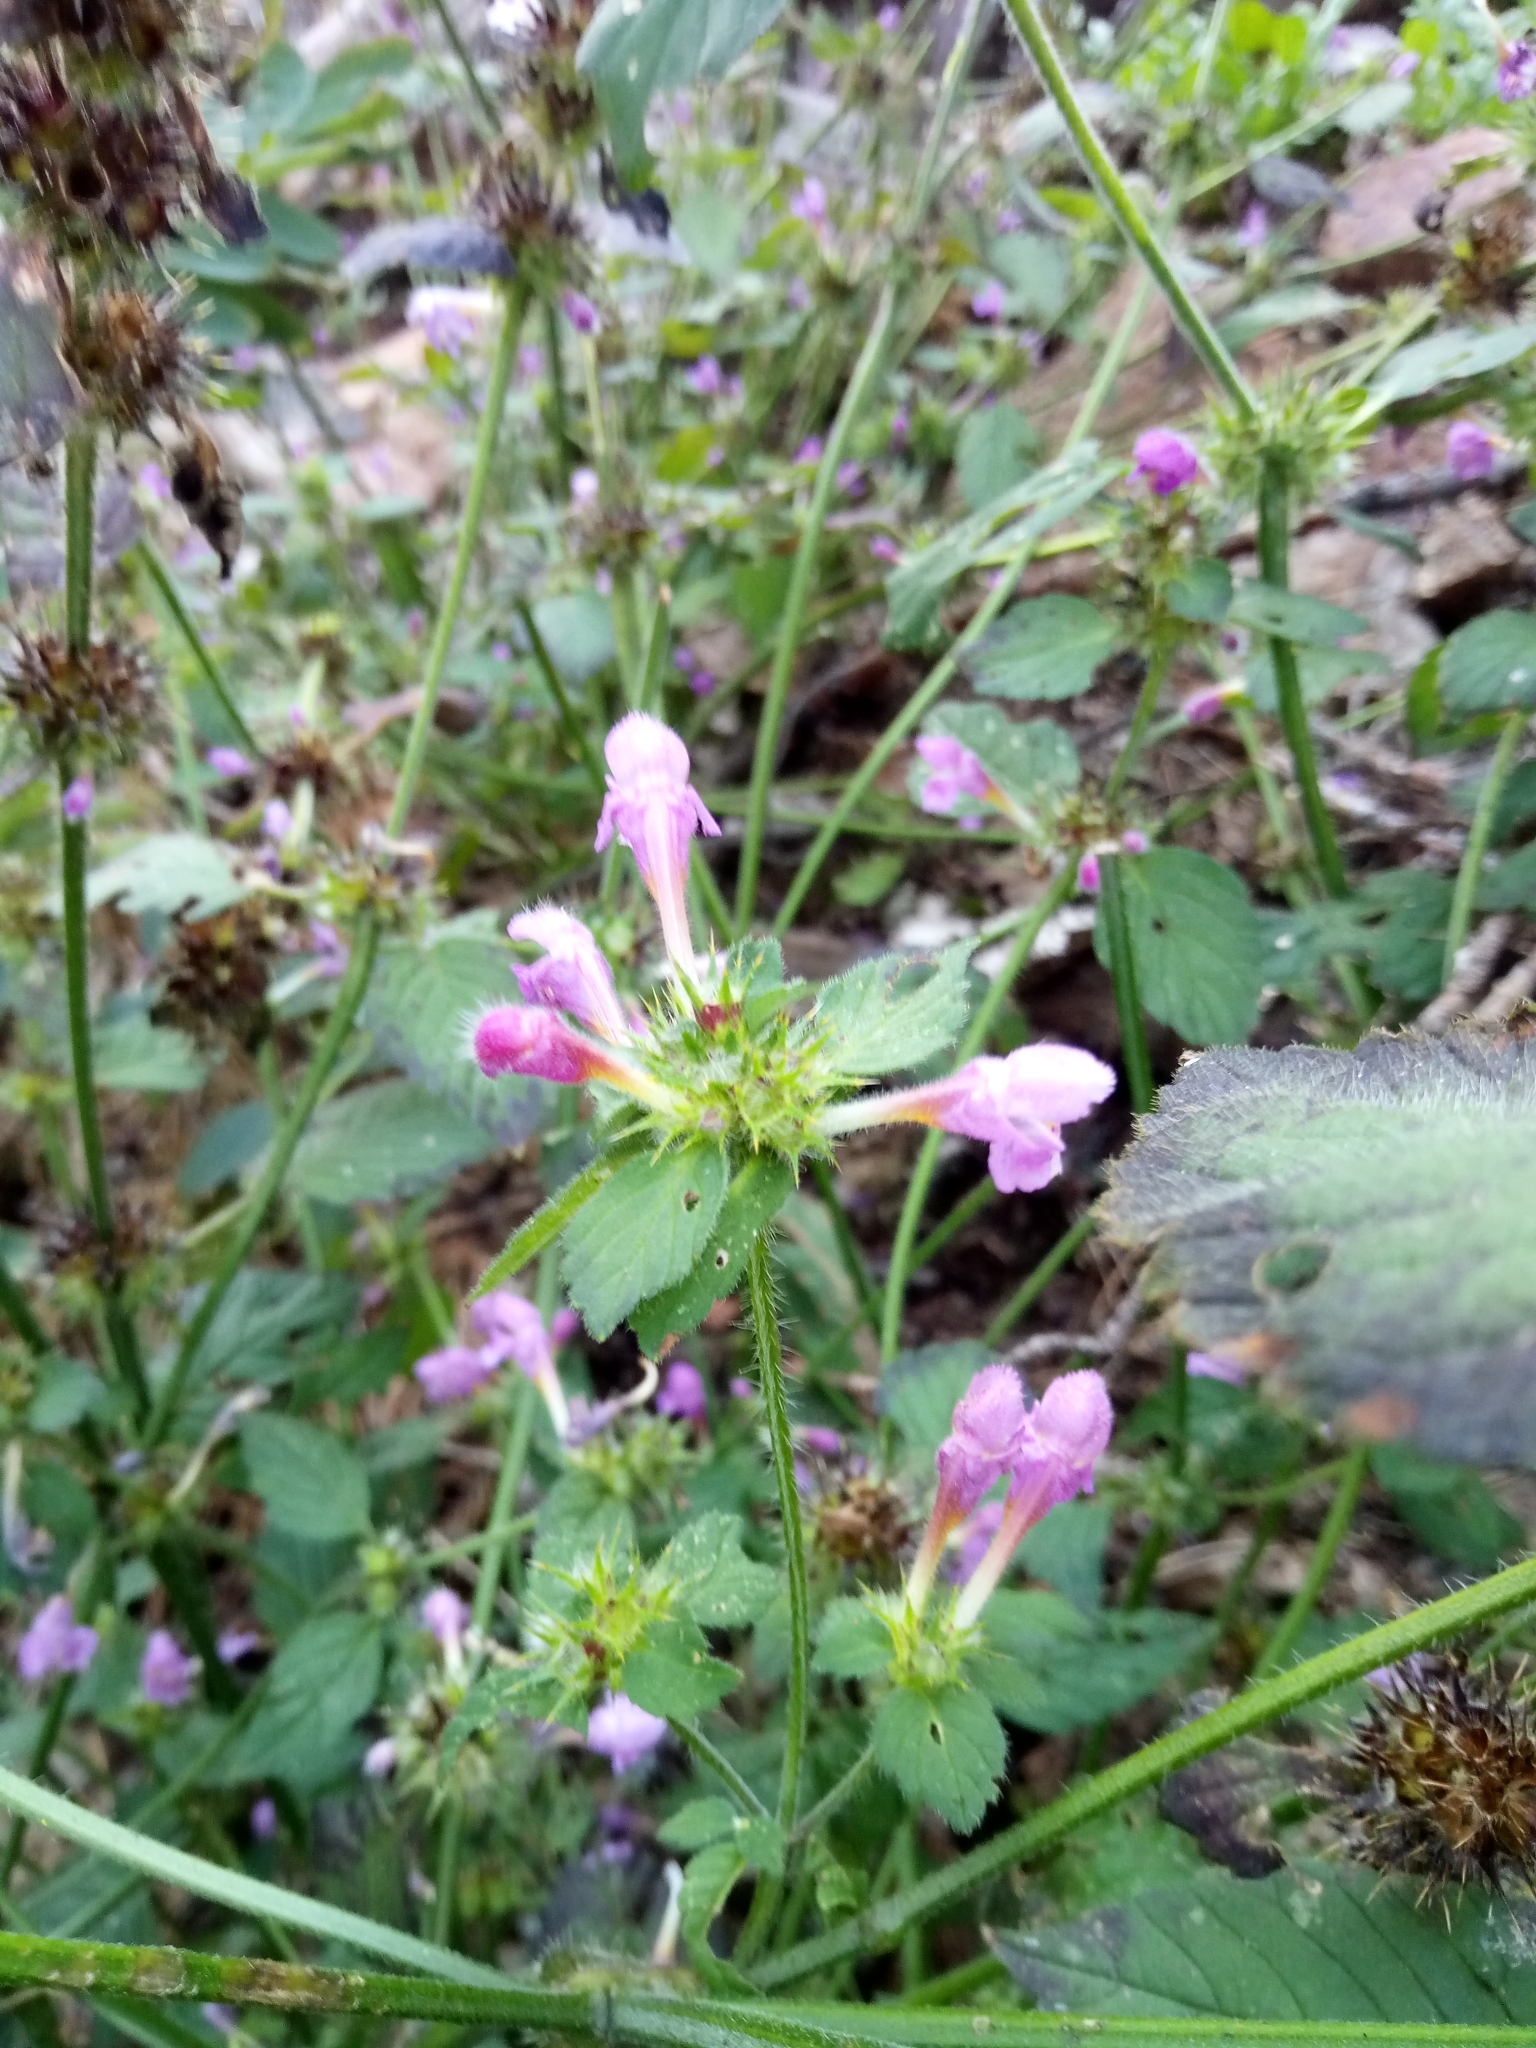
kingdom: Plantae
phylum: Tracheophyta
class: Magnoliopsida
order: Lamiales
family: Lamiaceae
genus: Galeopsis
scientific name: Galeopsis pubescens
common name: Downy hemp-nettle
